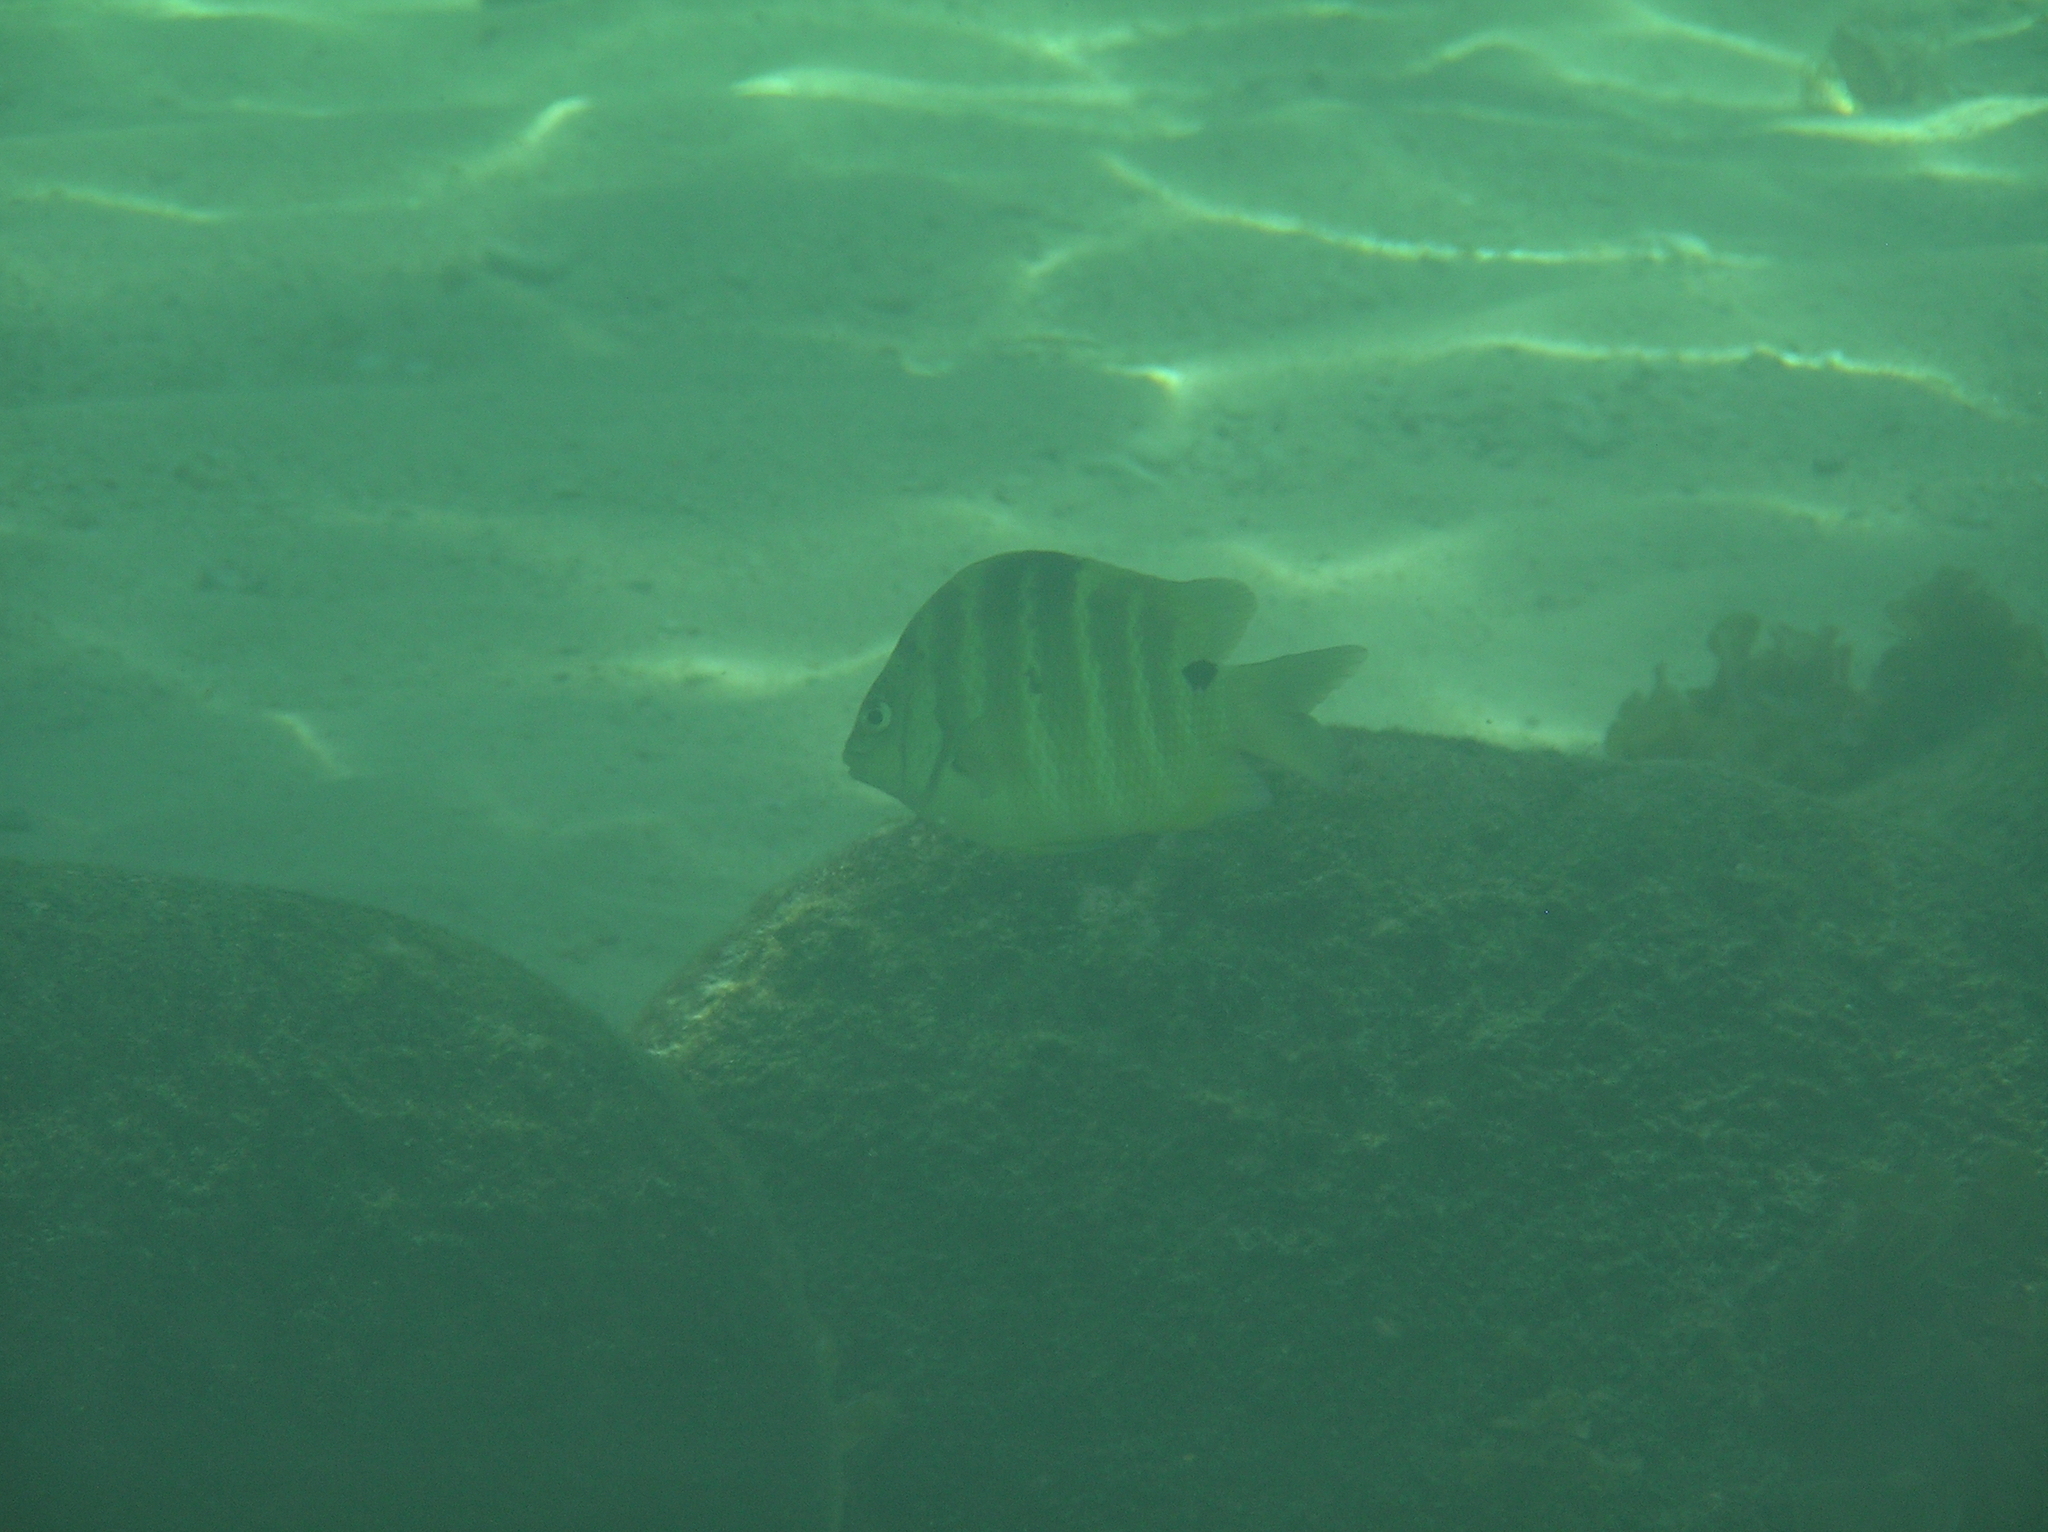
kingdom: Animalia
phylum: Chordata
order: Perciformes
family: Pomacentridae
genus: Abudefduf
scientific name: Abudefduf sordidus
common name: Blackspot sergeant
